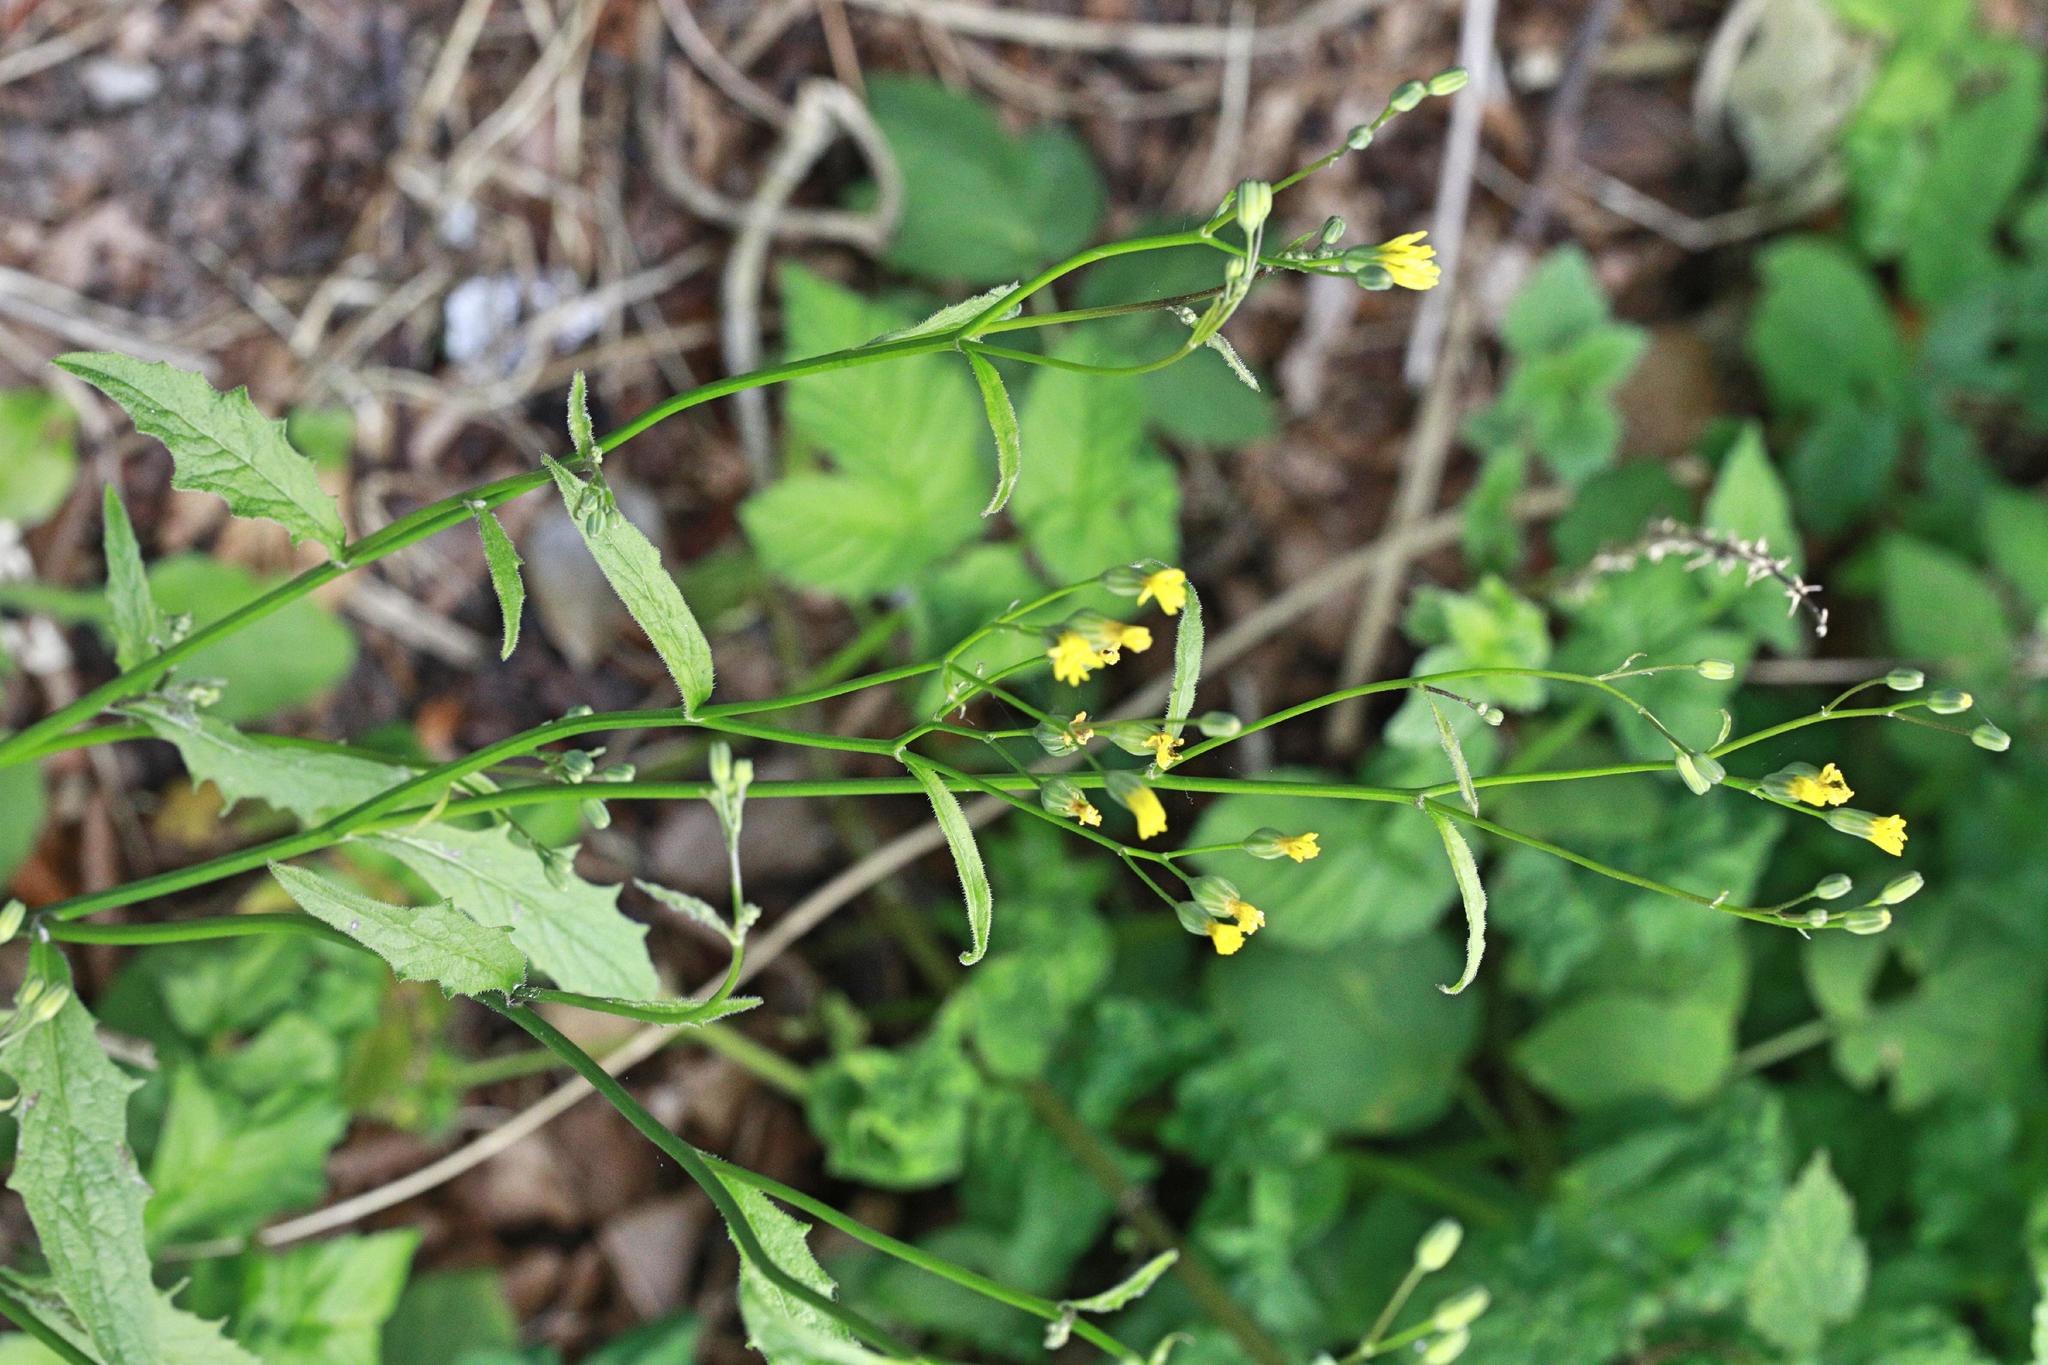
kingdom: Plantae
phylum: Tracheophyta
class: Magnoliopsida
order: Asterales
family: Asteraceae
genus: Lapsana
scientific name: Lapsana communis
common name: Nipplewort
